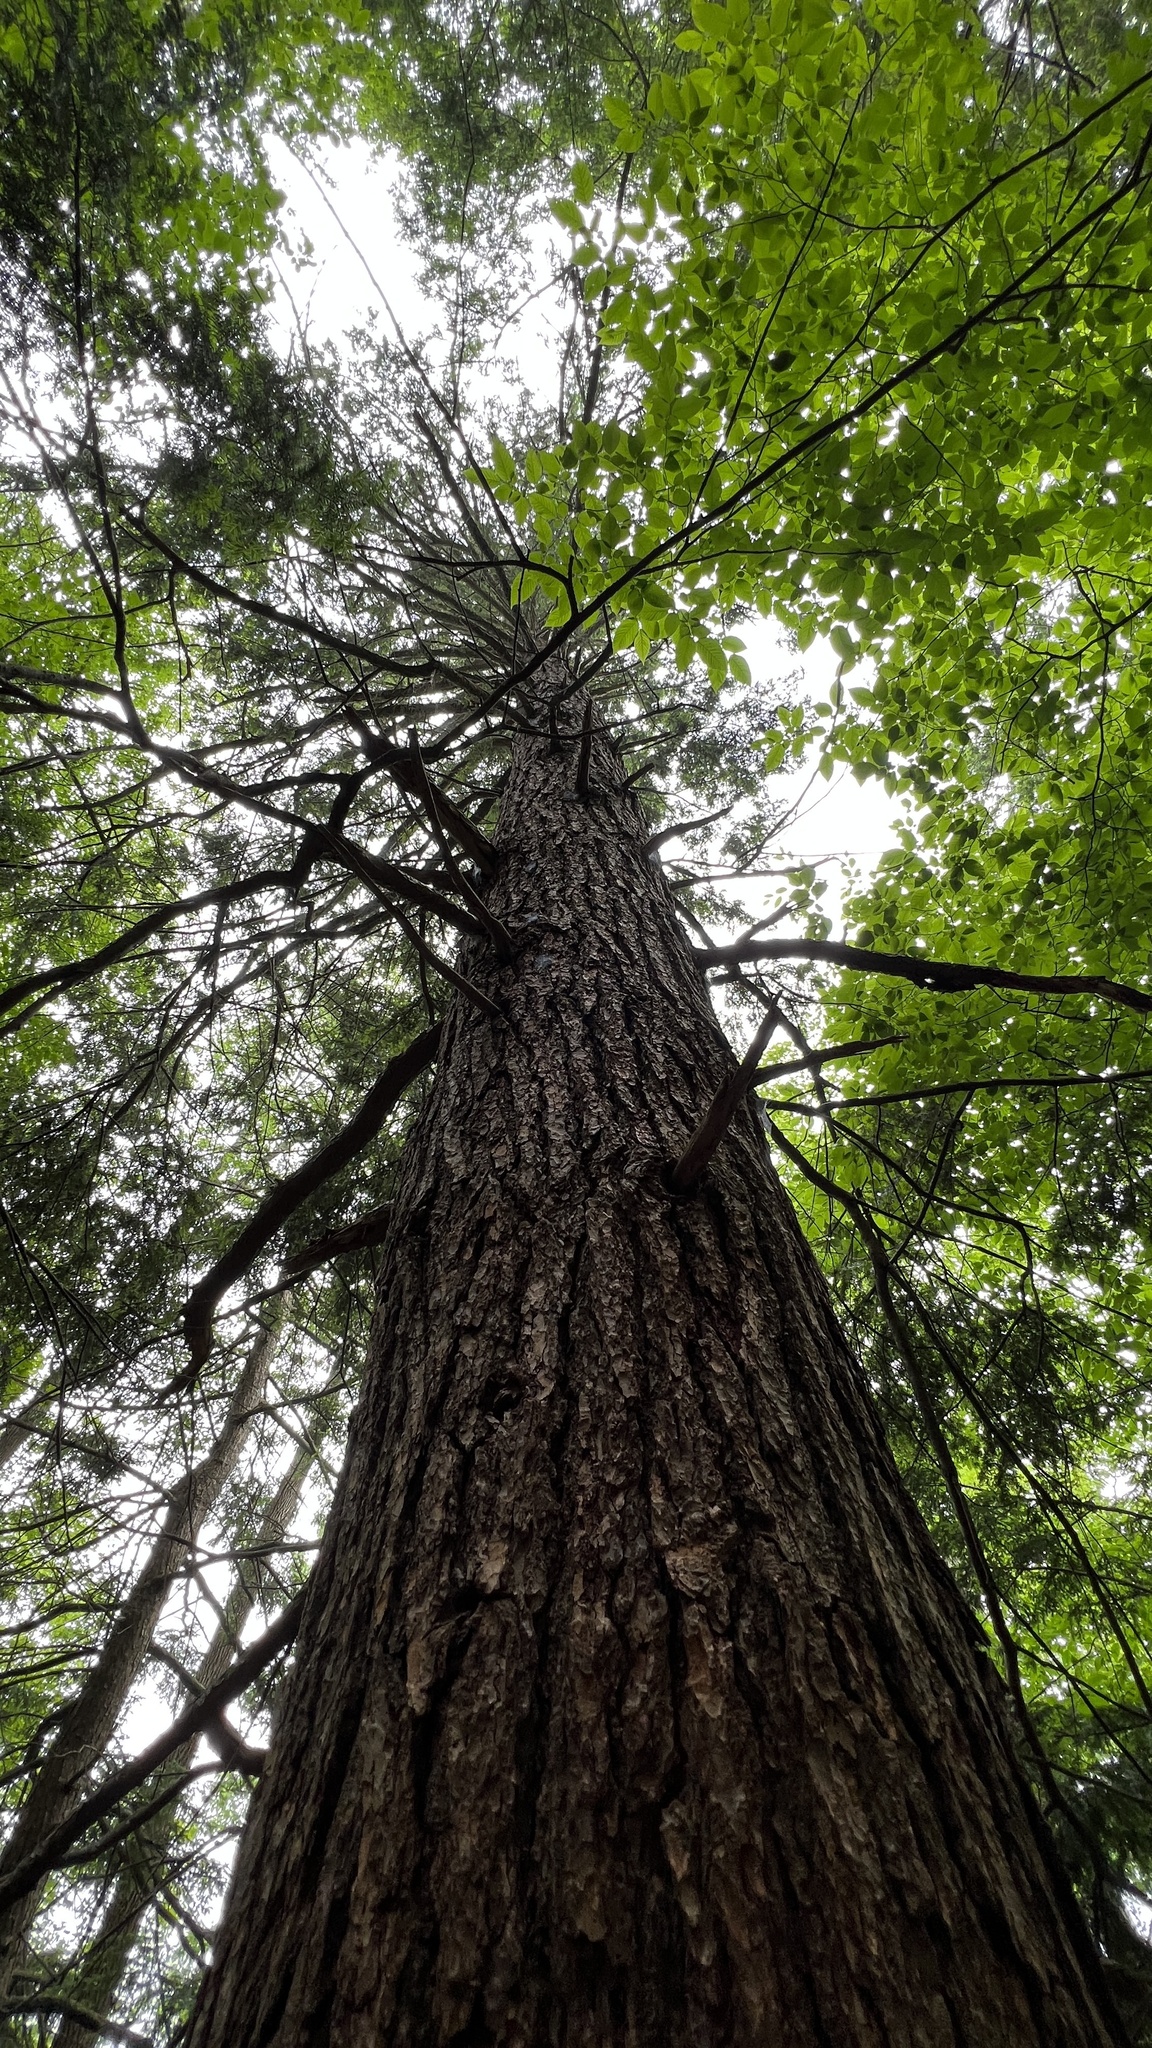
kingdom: Plantae
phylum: Tracheophyta
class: Pinopsida
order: Pinales
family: Pinaceae
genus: Tsuga
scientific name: Tsuga canadensis
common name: Eastern hemlock
